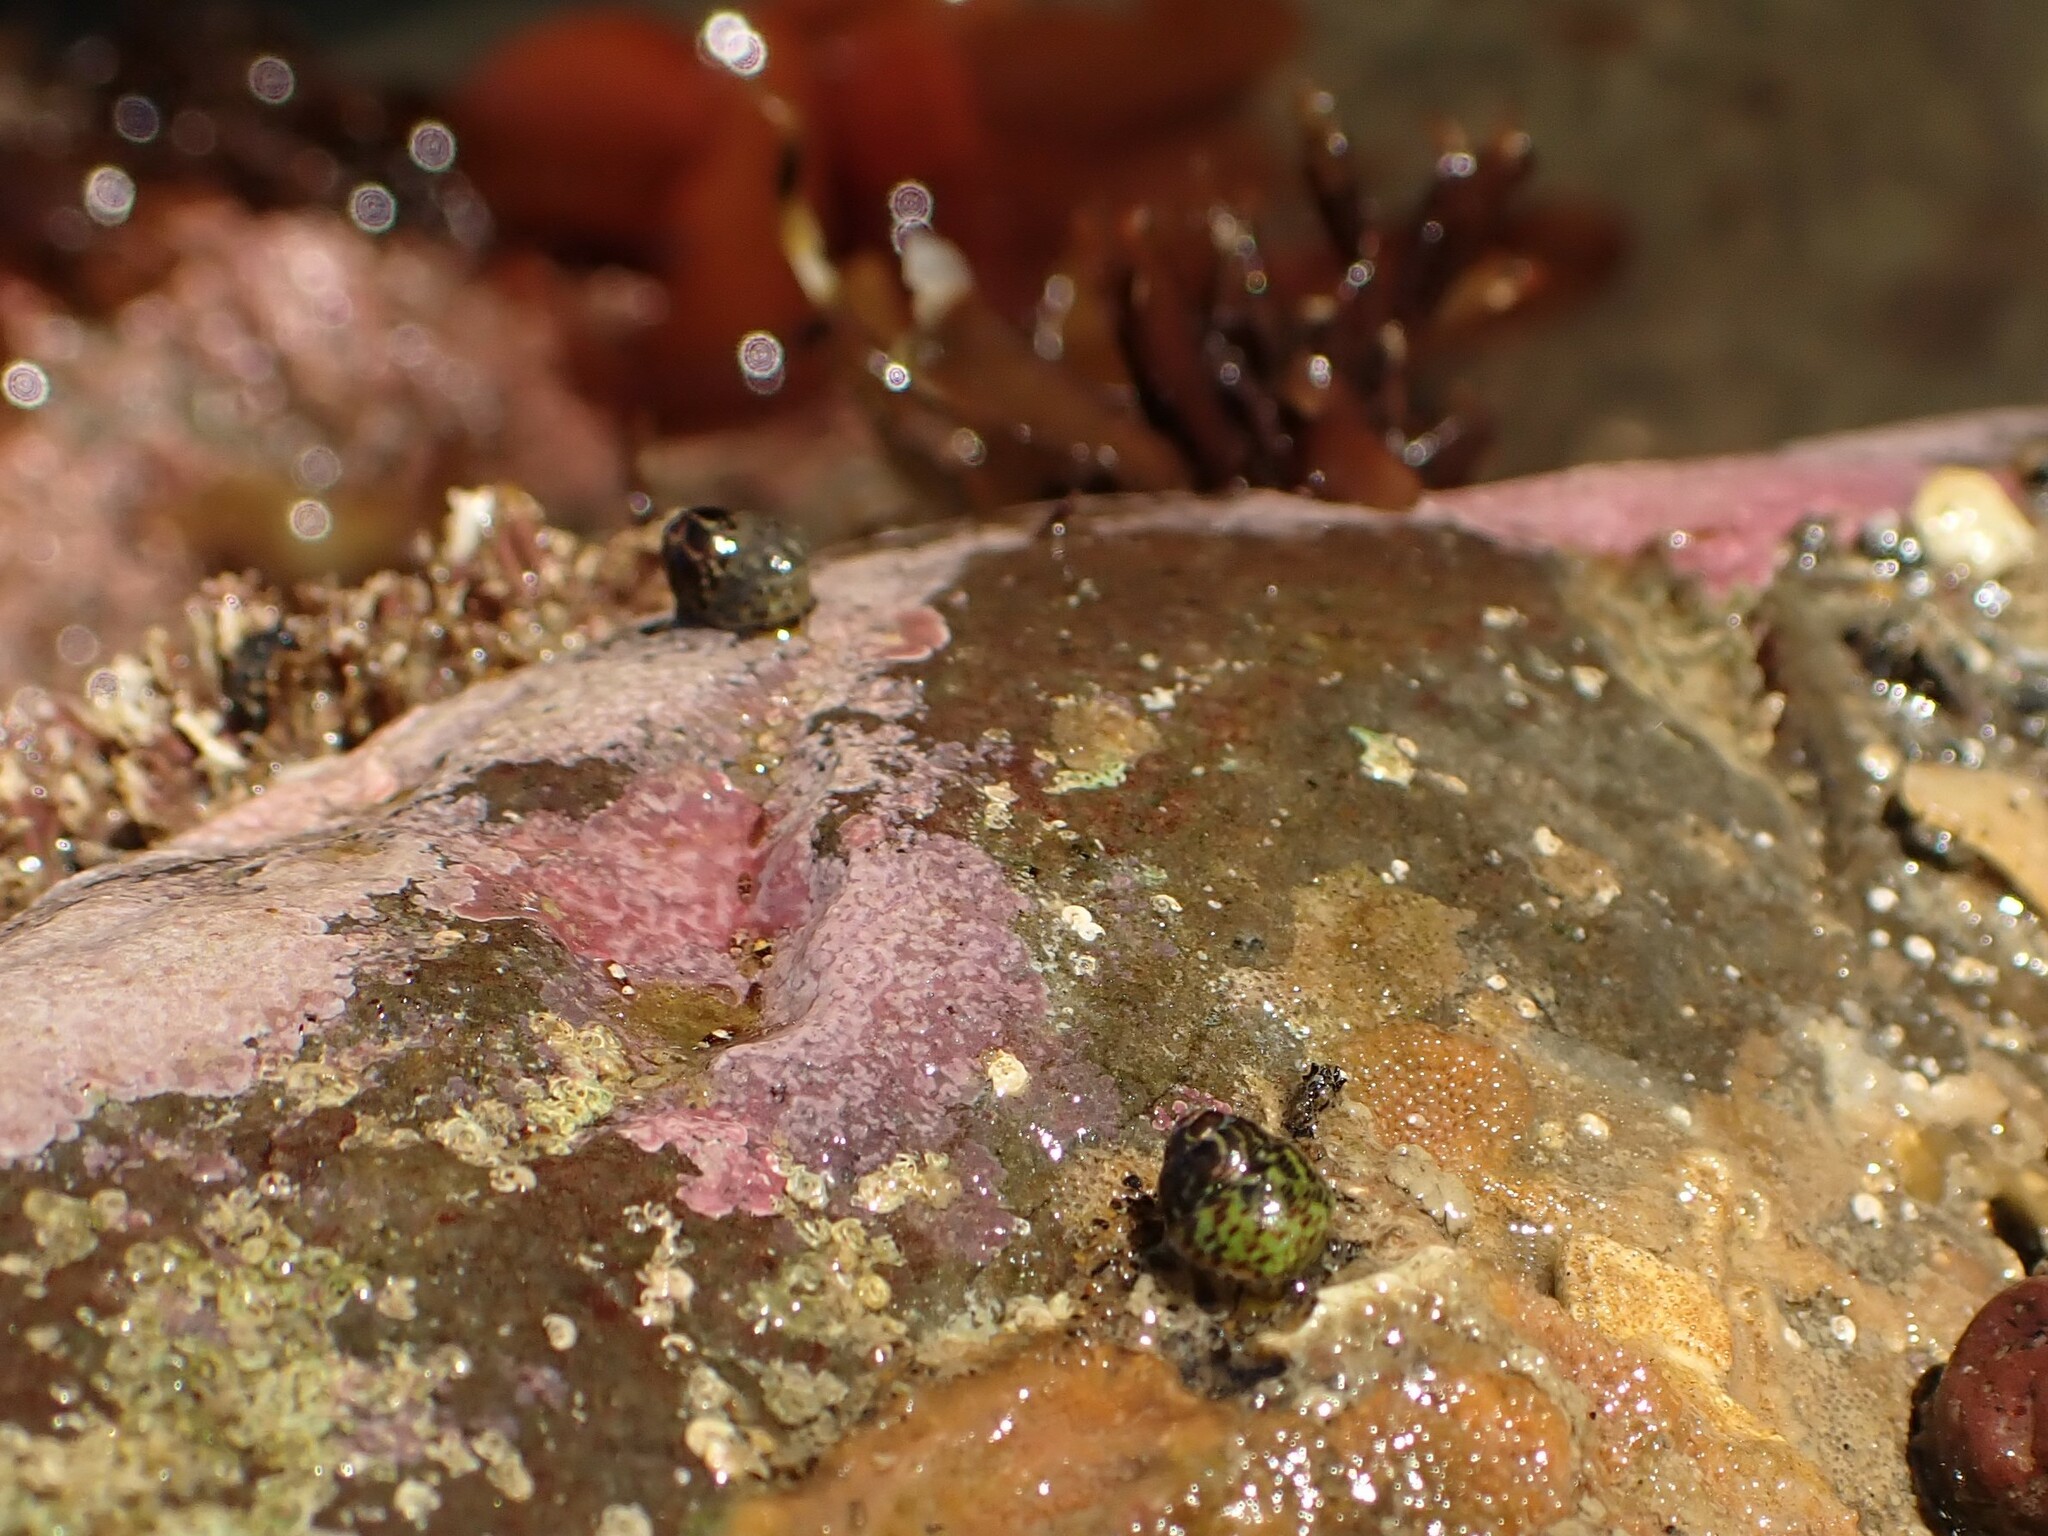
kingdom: Animalia
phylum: Mollusca
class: Gastropoda
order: Trochida
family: Trochidae
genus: Micrelenchus
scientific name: Micrelenchus tessellatus
